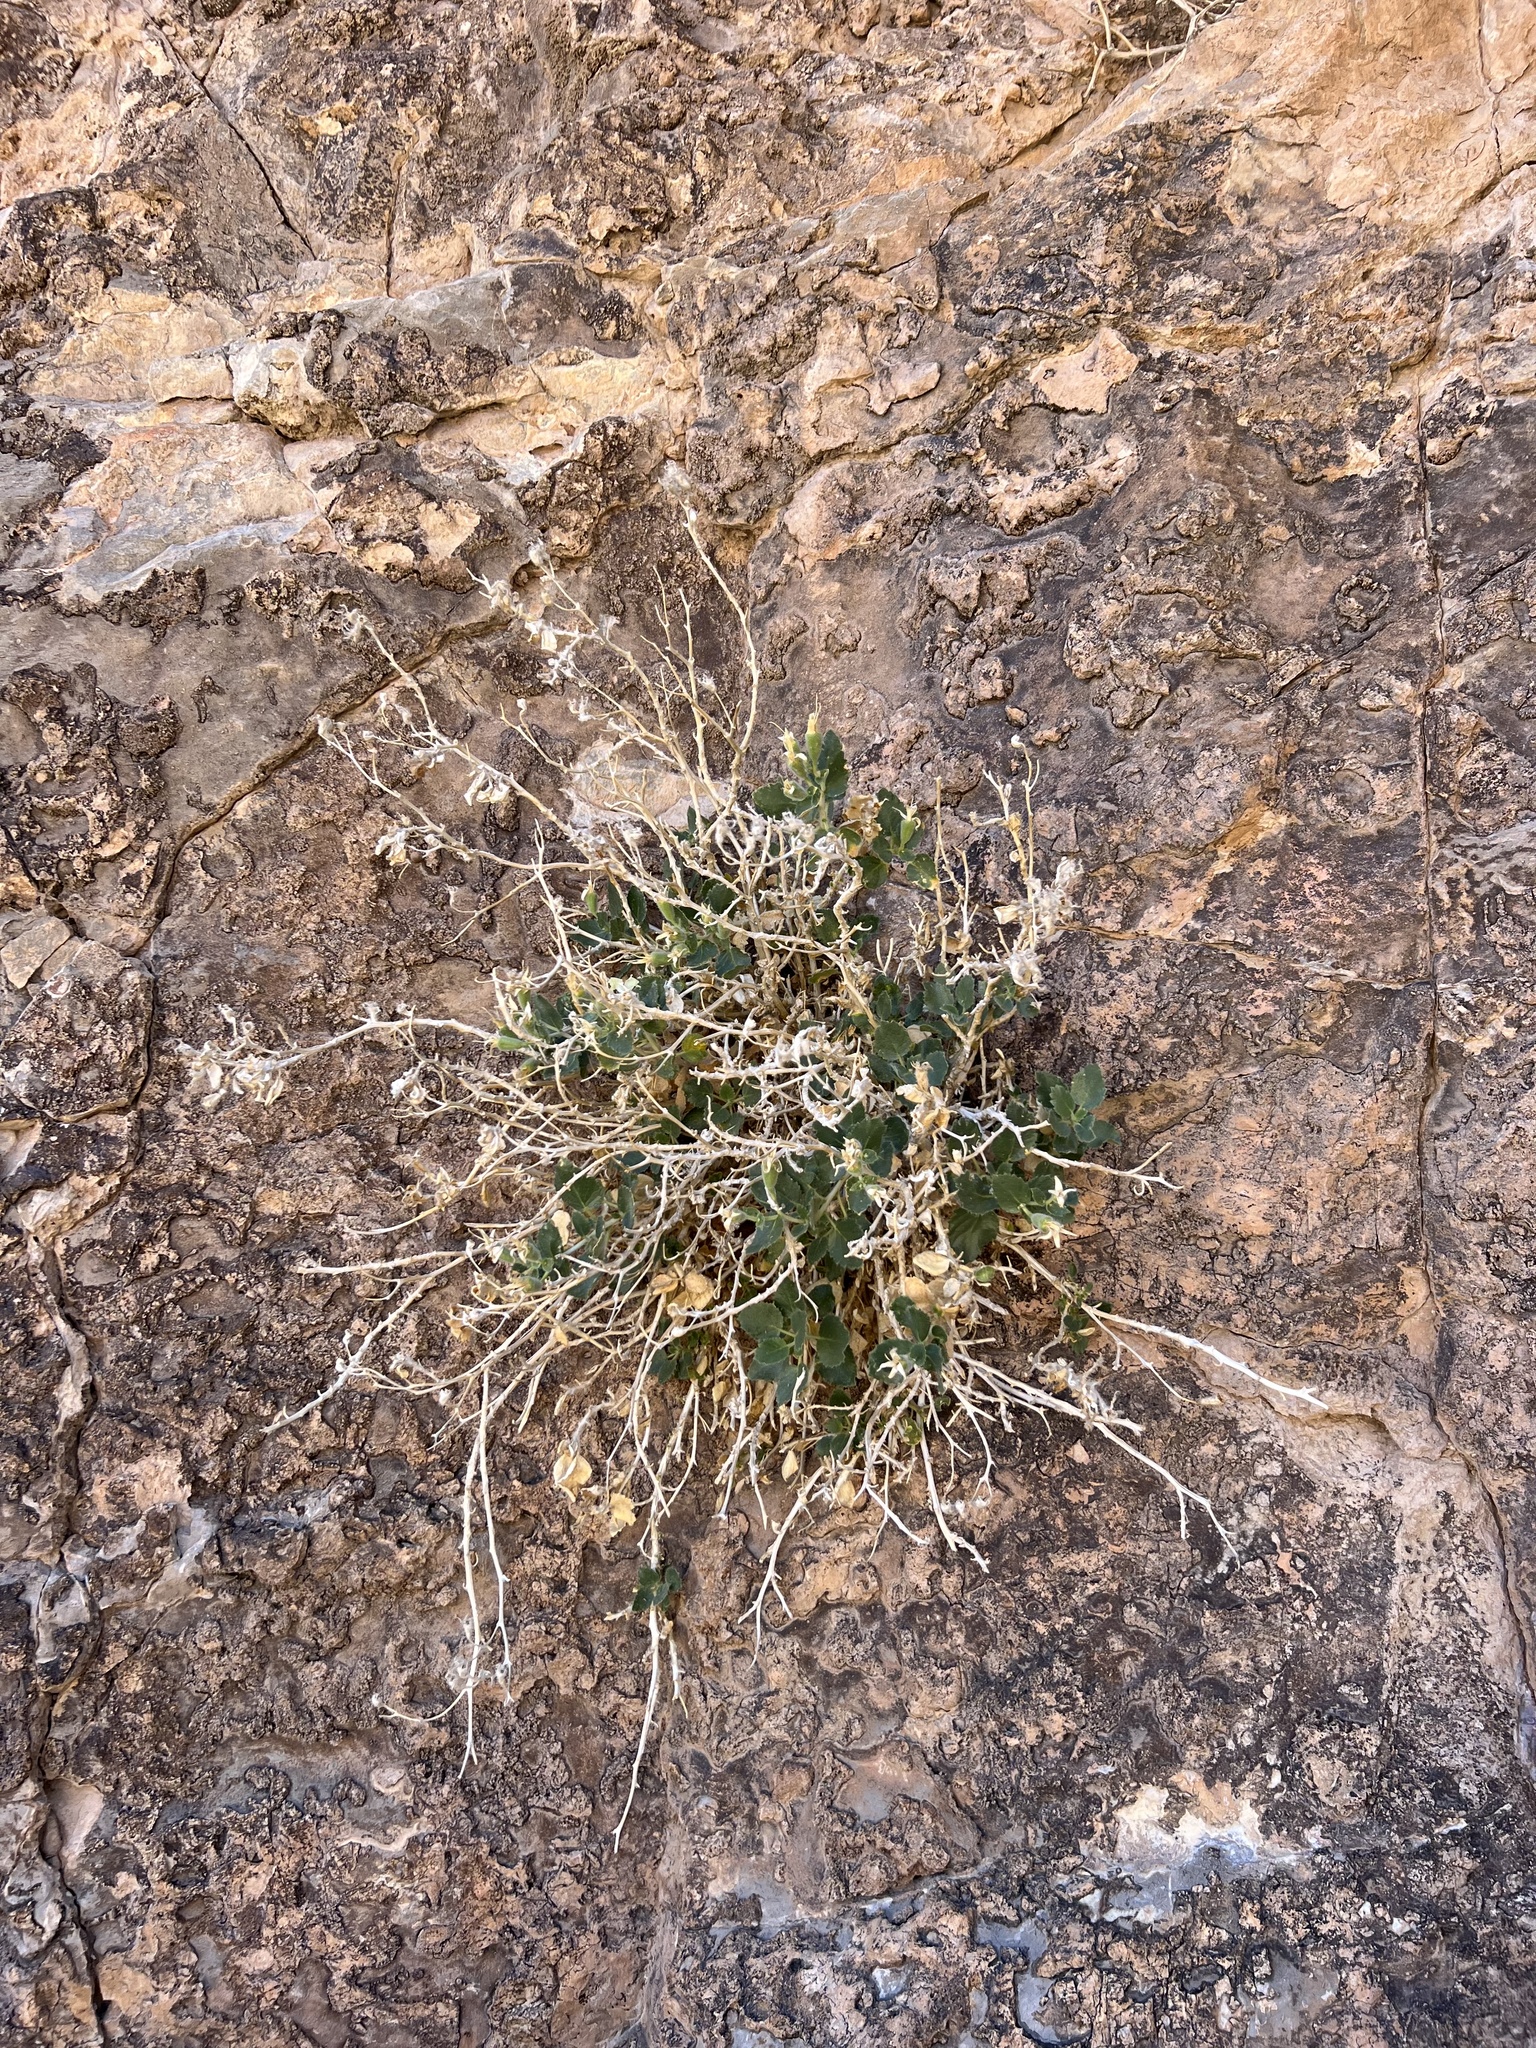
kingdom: Plantae
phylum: Tracheophyta
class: Magnoliopsida
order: Cornales
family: Loasaceae
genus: Eucnide
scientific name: Eucnide urens
